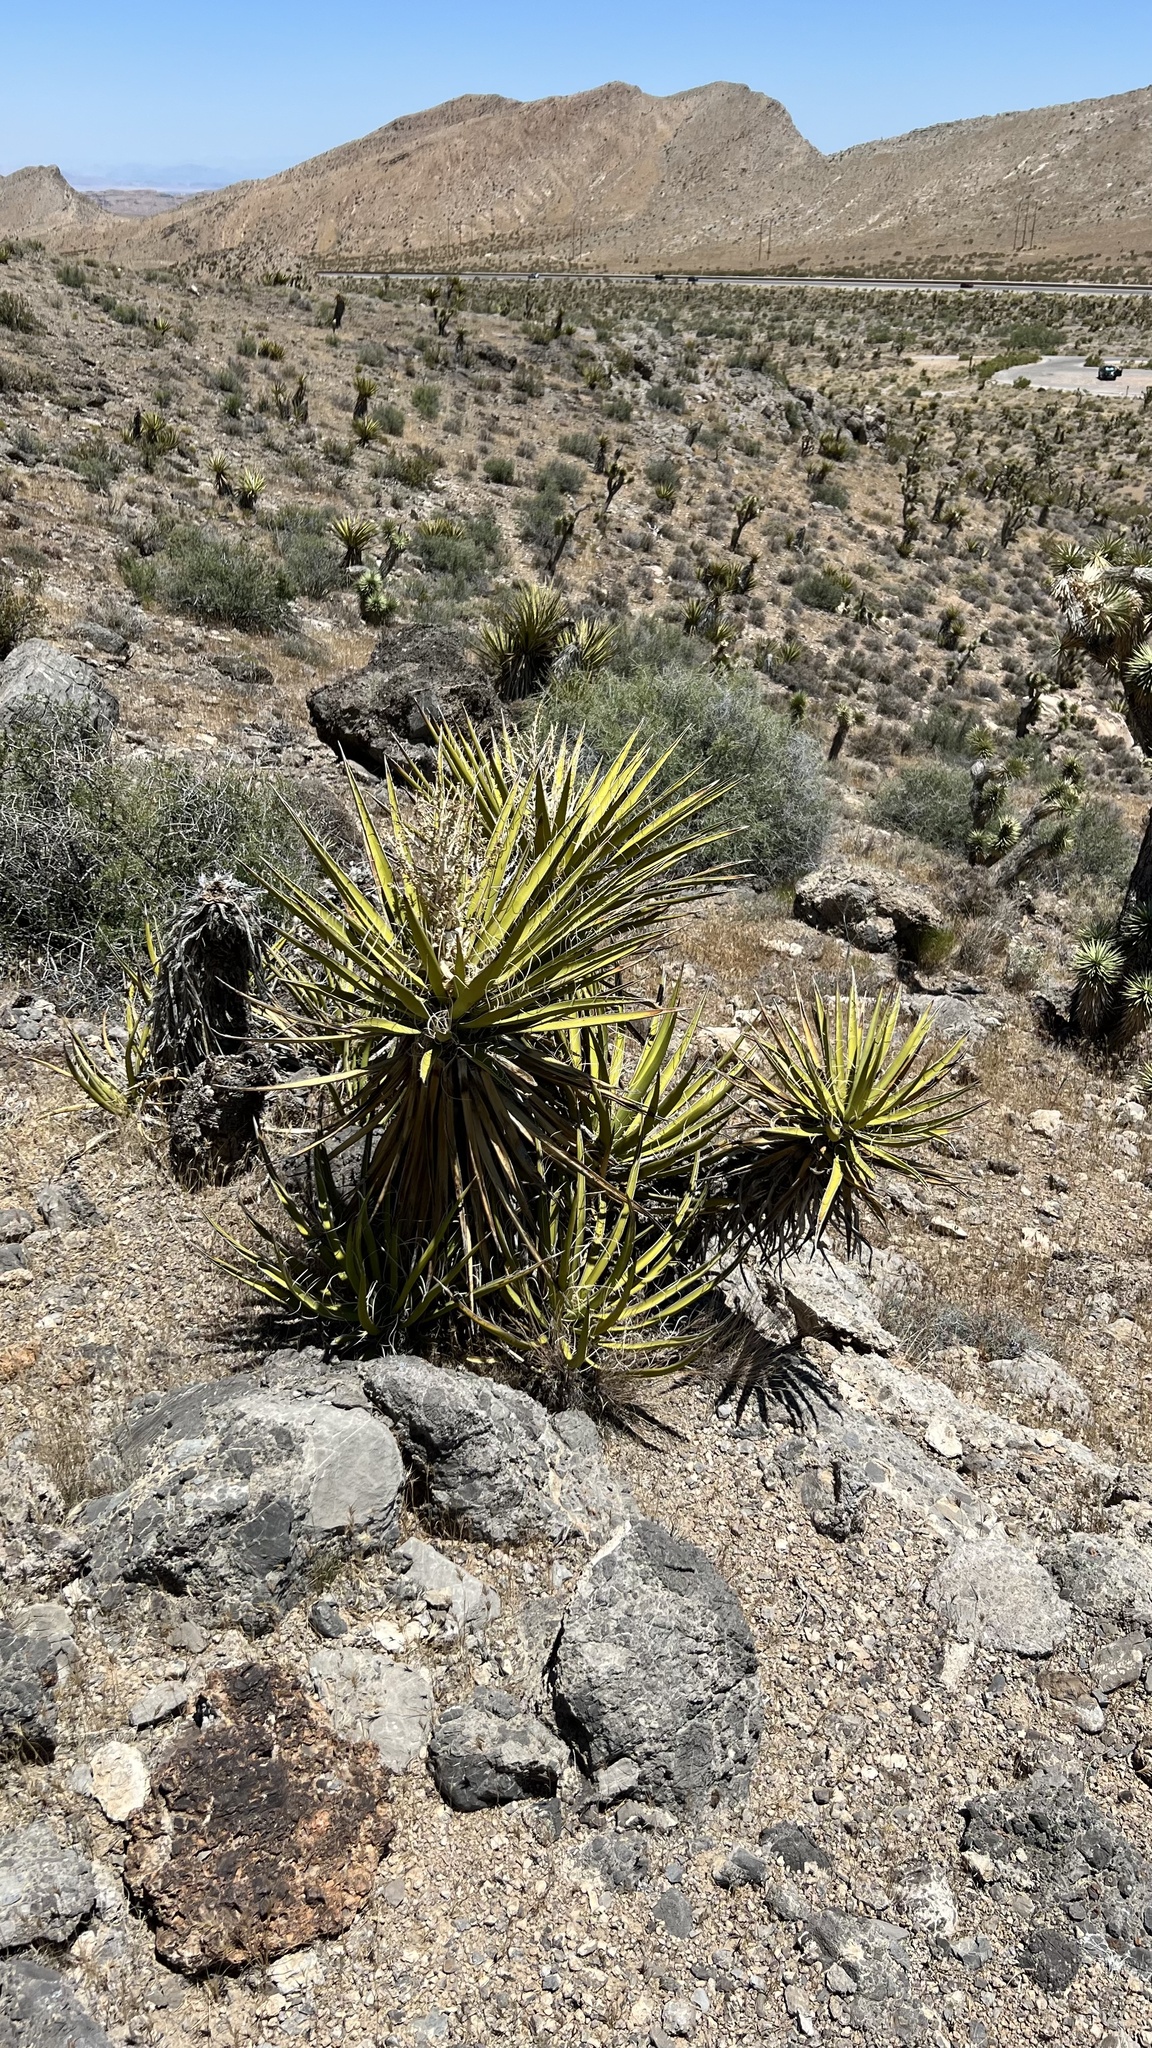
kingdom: Plantae
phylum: Tracheophyta
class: Liliopsida
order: Asparagales
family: Asparagaceae
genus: Yucca
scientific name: Yucca schidigera
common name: Mojave yucca
